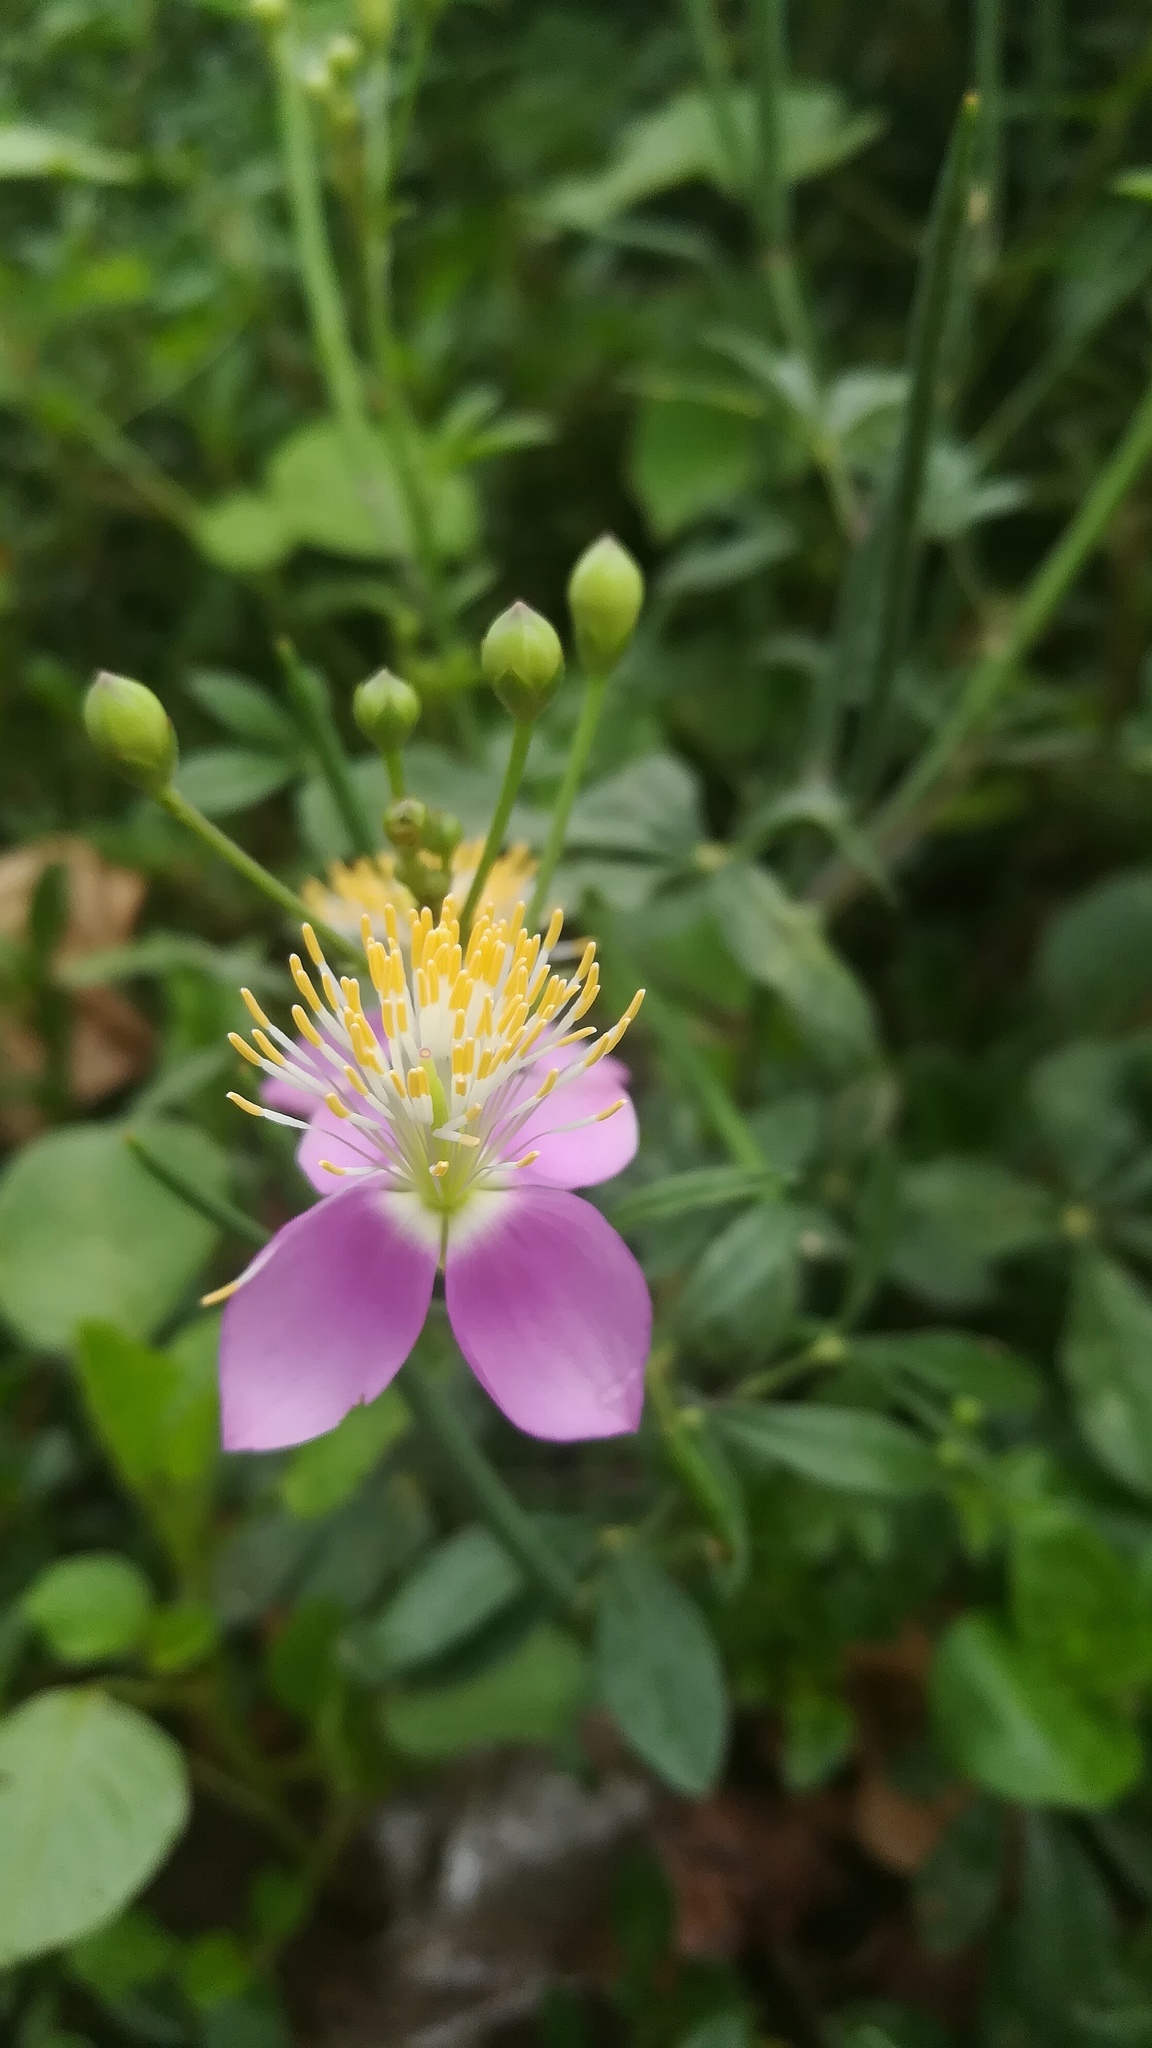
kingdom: Plantae
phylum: Tracheophyta
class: Magnoliopsida
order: Brassicales
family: Cleomaceae
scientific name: Cleomaceae
